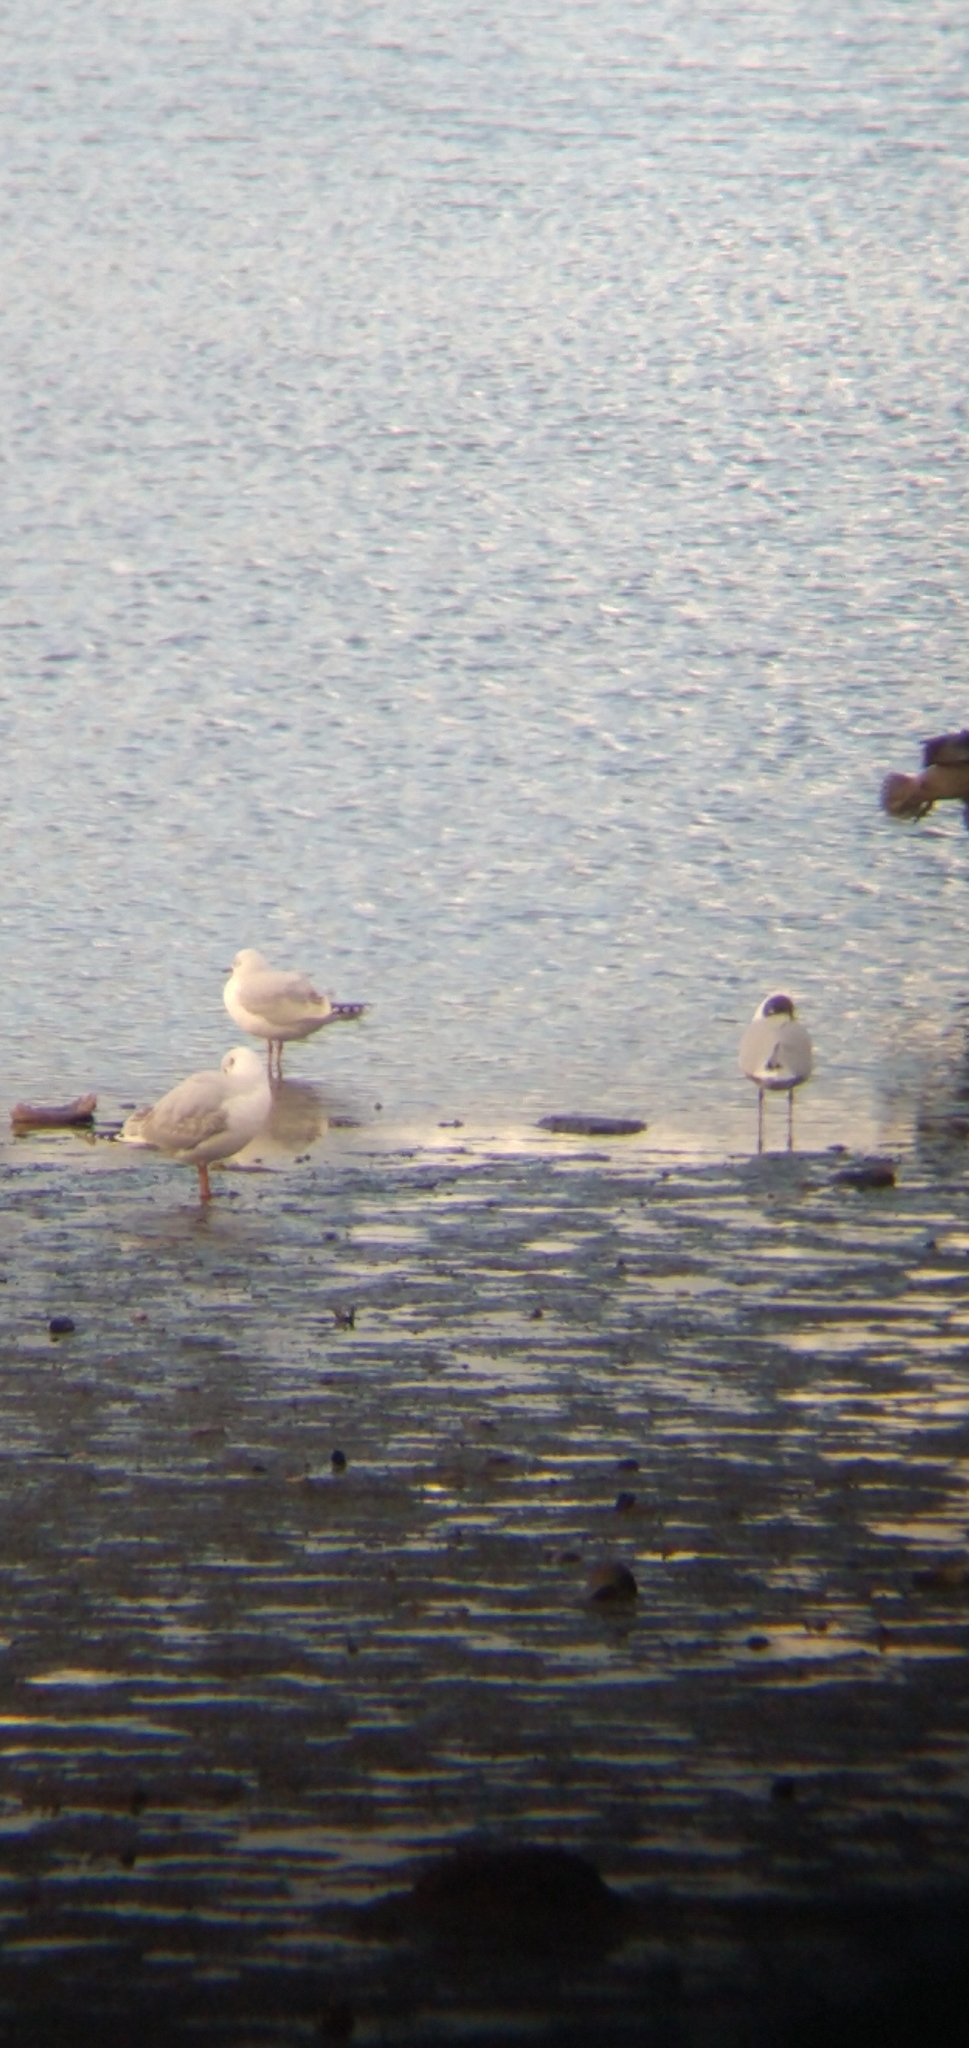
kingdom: Animalia
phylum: Chordata
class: Aves
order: Charadriiformes
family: Laridae
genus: Chroicocephalus
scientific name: Chroicocephalus maculipennis
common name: Brown-hooded gull
